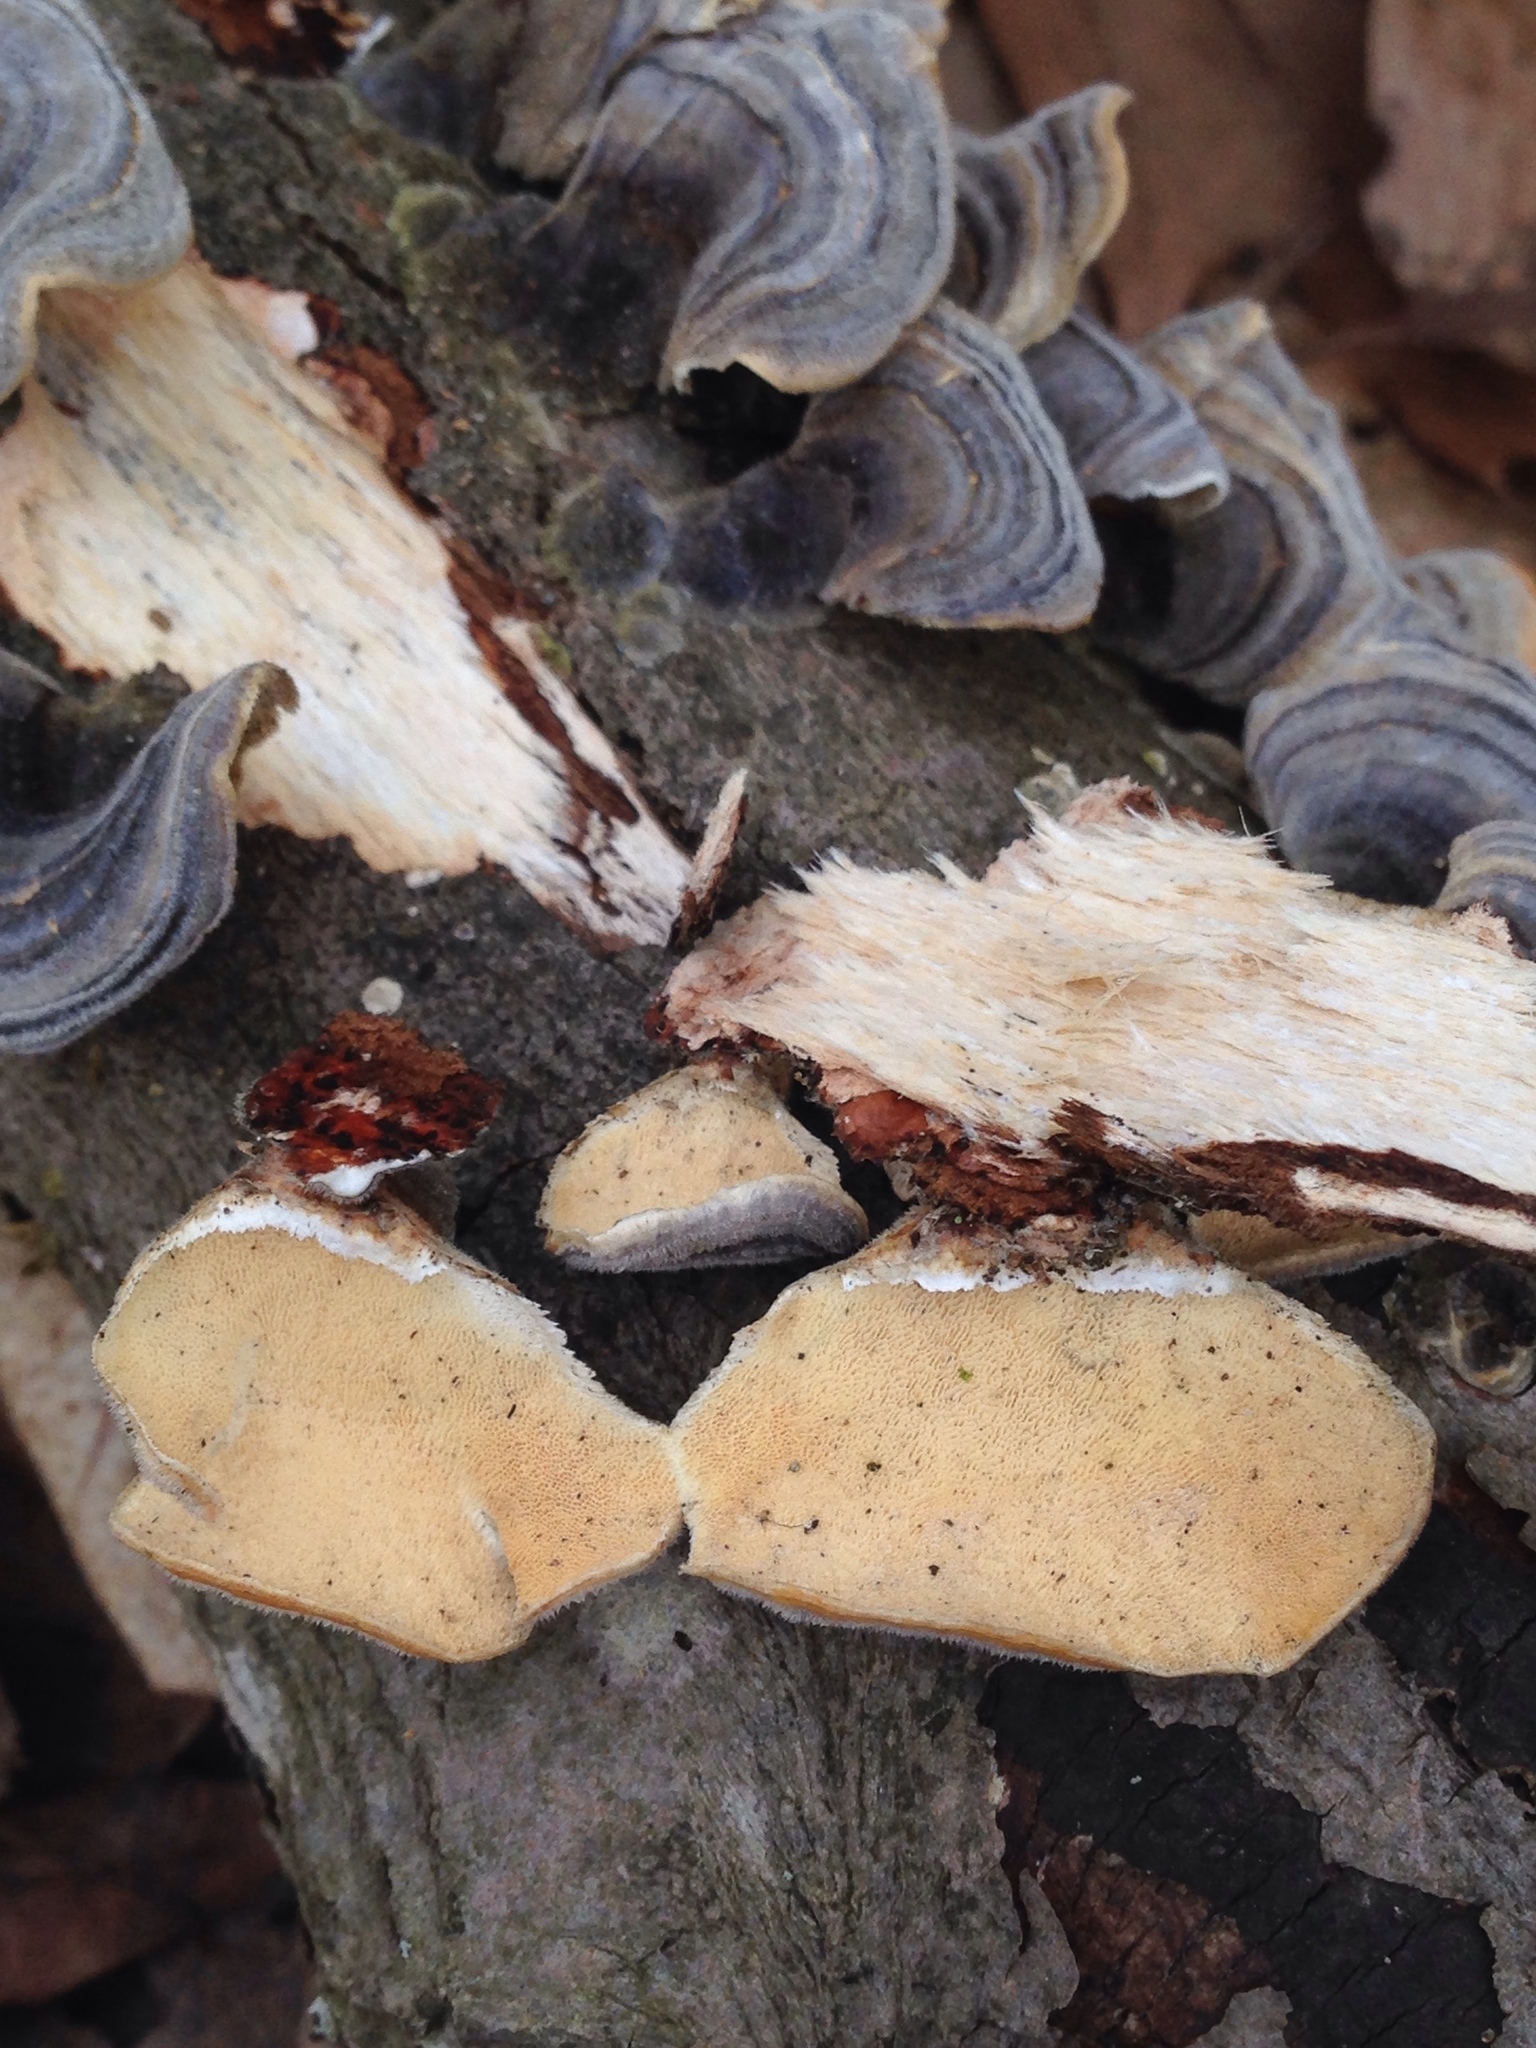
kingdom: Fungi
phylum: Basidiomycota
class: Agaricomycetes
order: Polyporales
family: Polyporaceae
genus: Trametes
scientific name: Trametes versicolor
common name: Turkeytail
